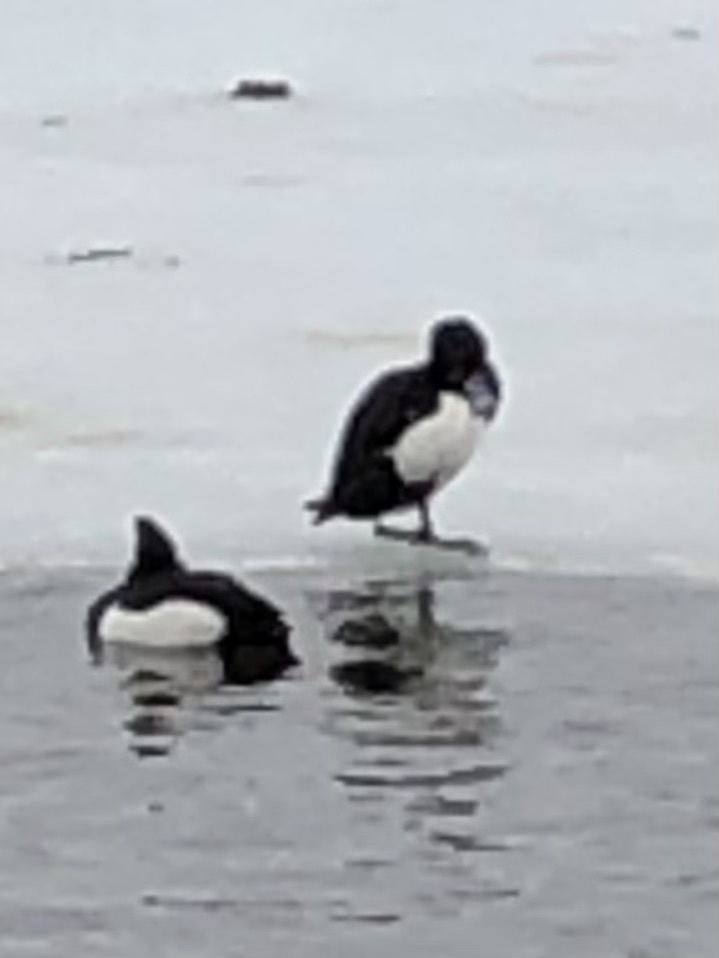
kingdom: Animalia
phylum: Chordata
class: Aves
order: Anseriformes
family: Anatidae
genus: Aythya
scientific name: Aythya fuligula
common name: Tufted duck
